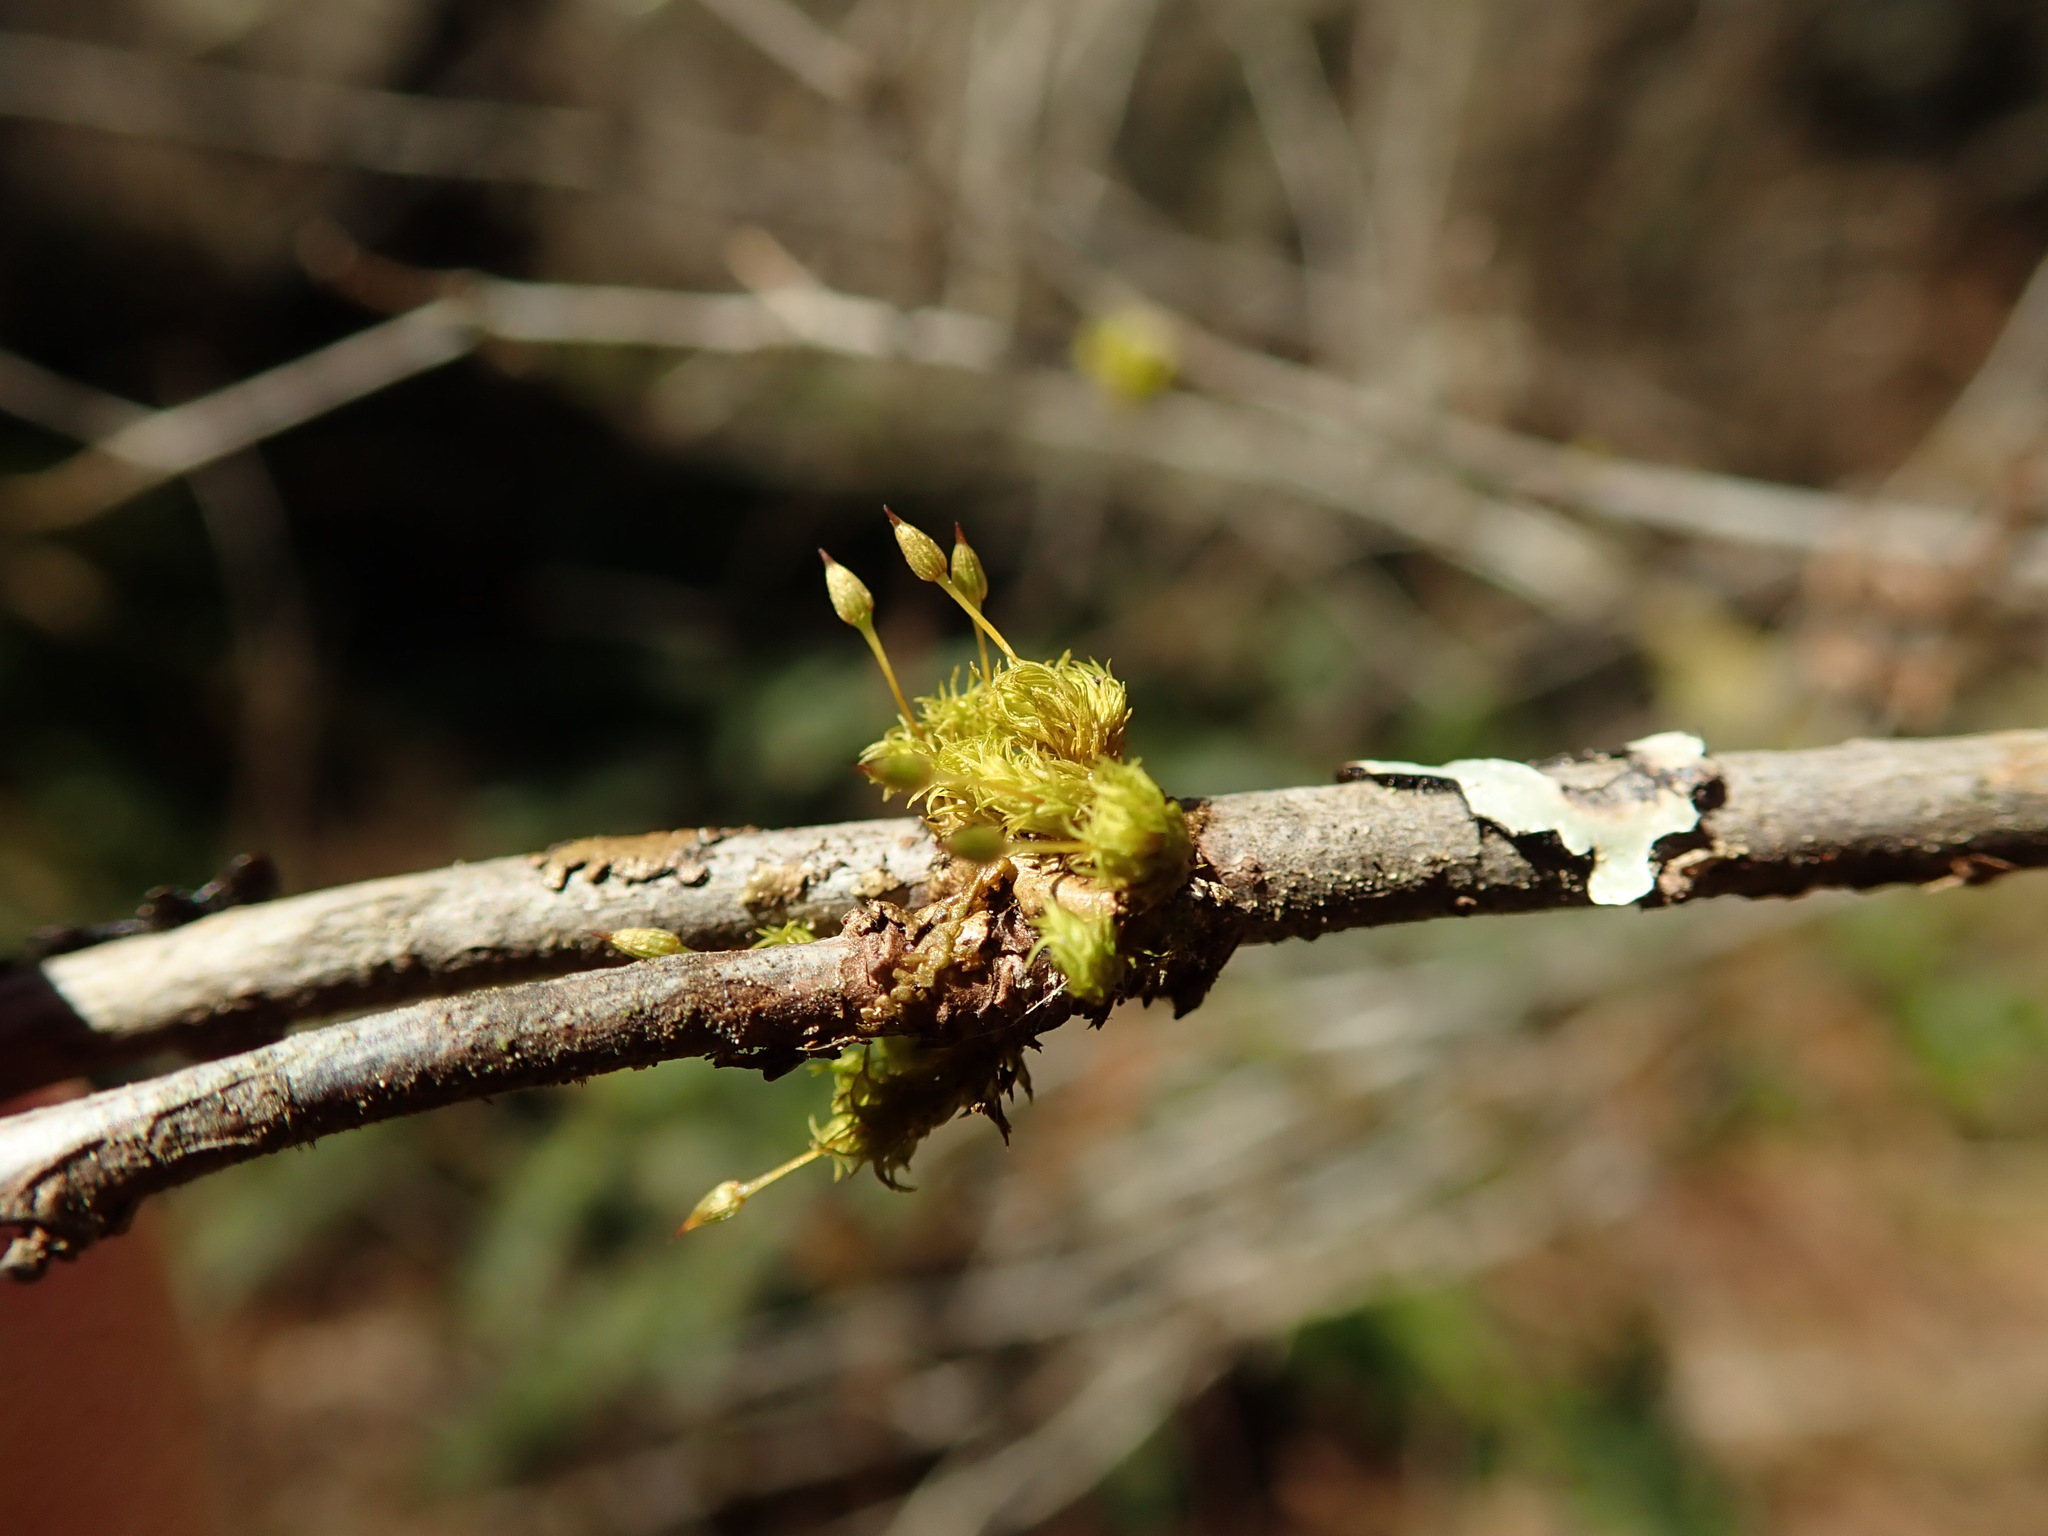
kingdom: Plantae
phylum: Bryophyta
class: Bryopsida
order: Orthotrichales
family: Orthotrichaceae
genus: Orthotrichum
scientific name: Orthotrichum consimile
